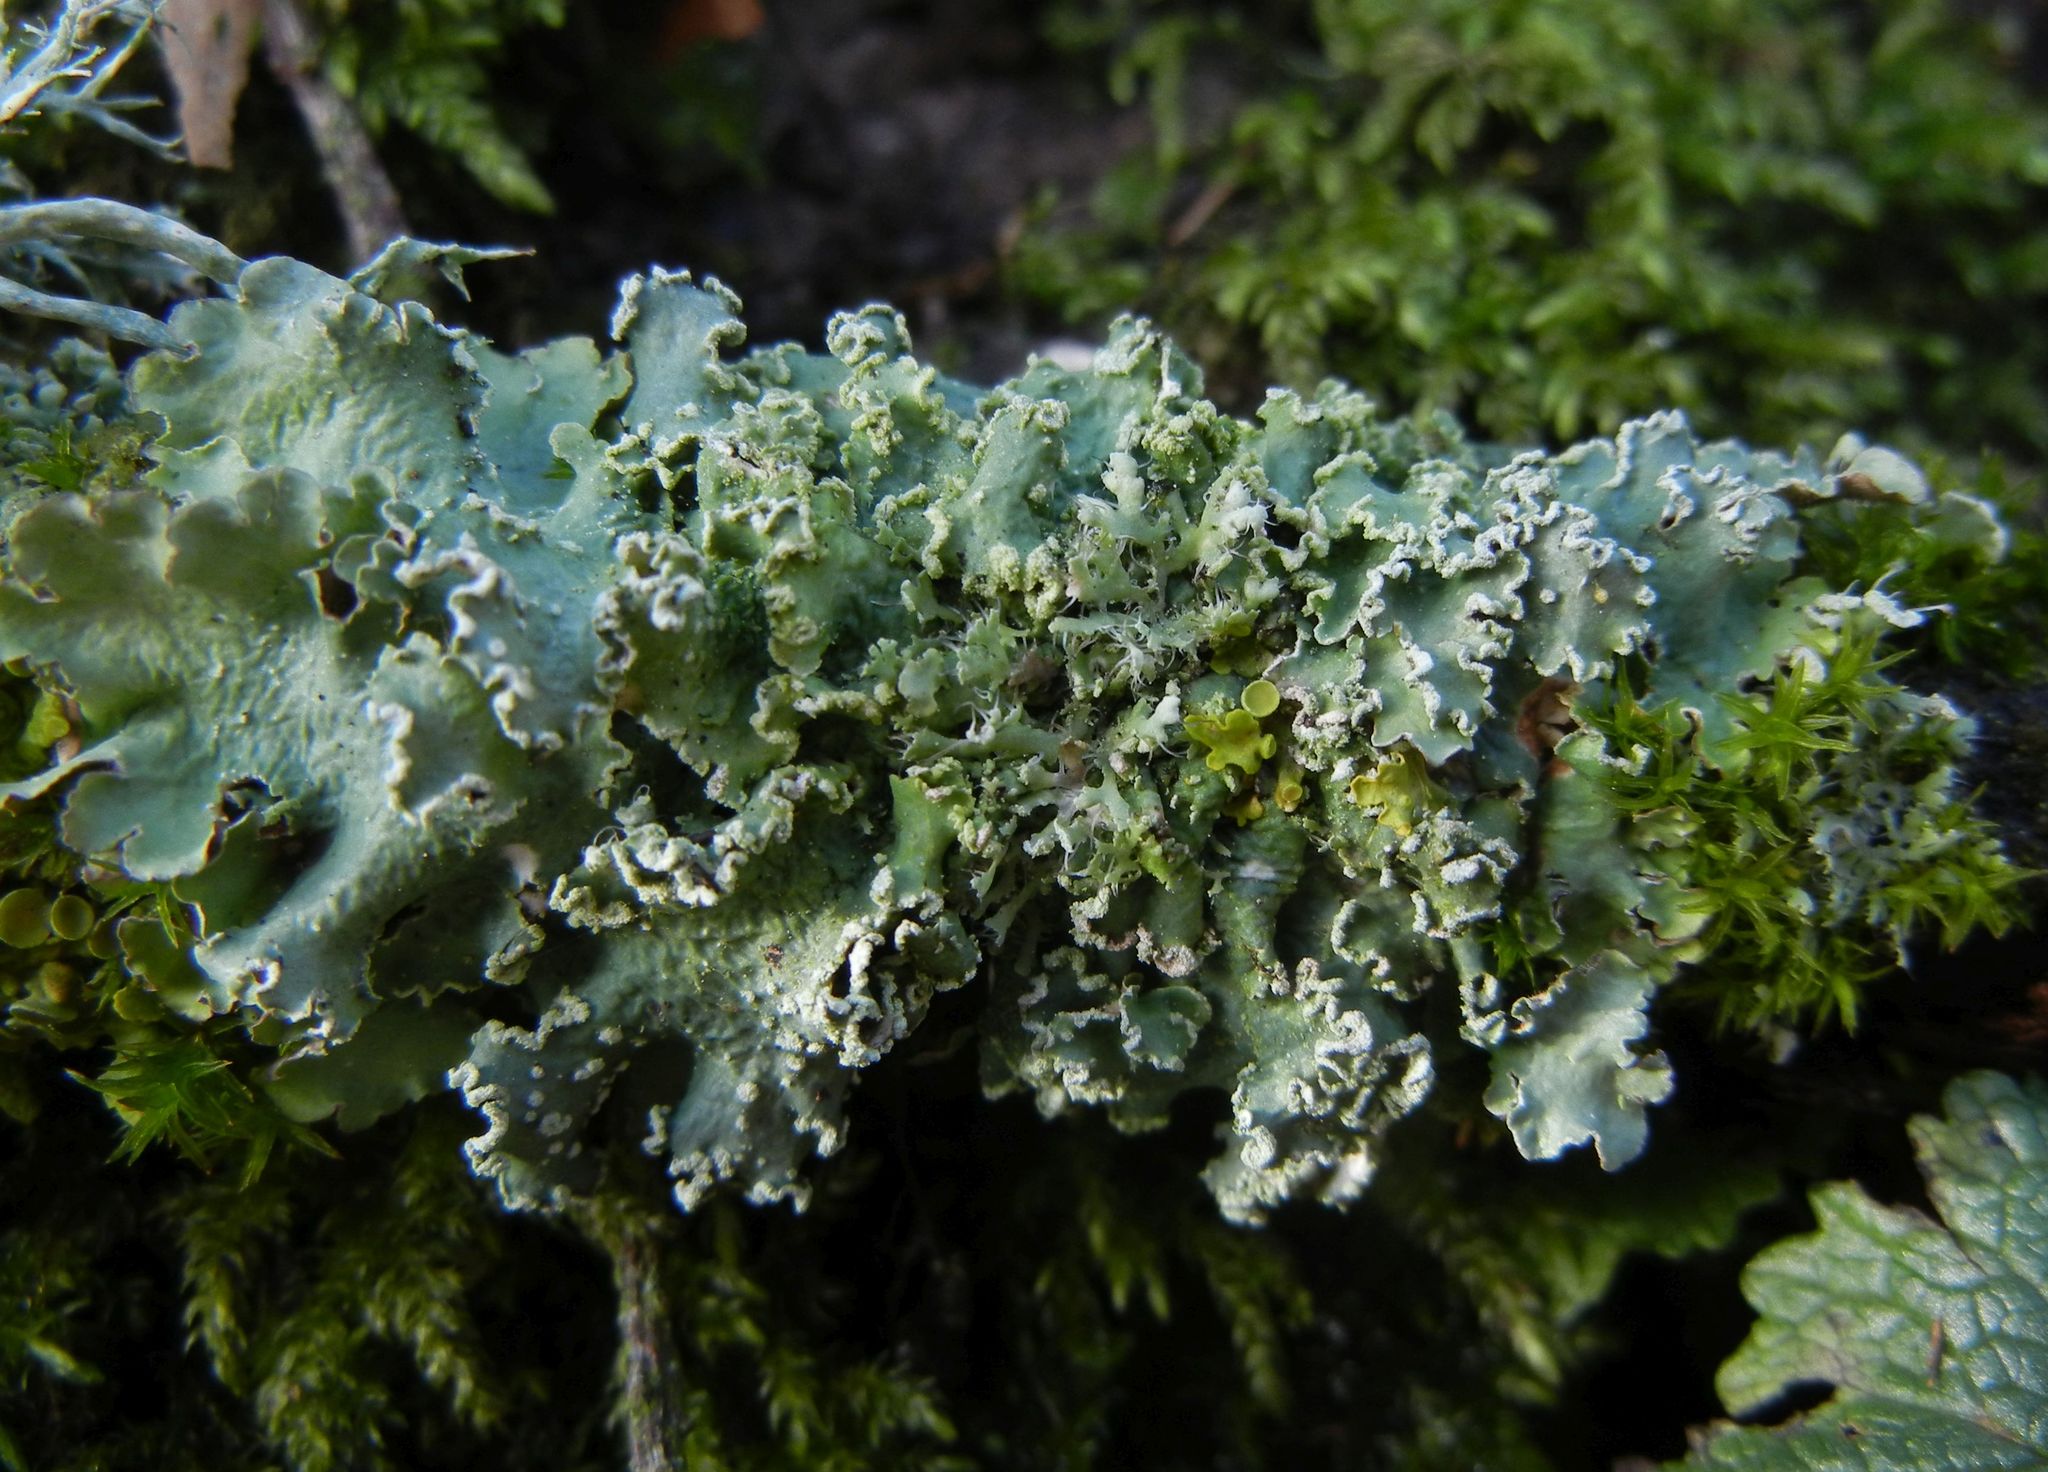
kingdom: Fungi
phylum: Ascomycota
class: Lecanoromycetes
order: Lecanorales
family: Parmeliaceae
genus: Punctelia
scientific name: Punctelia jeckeri
